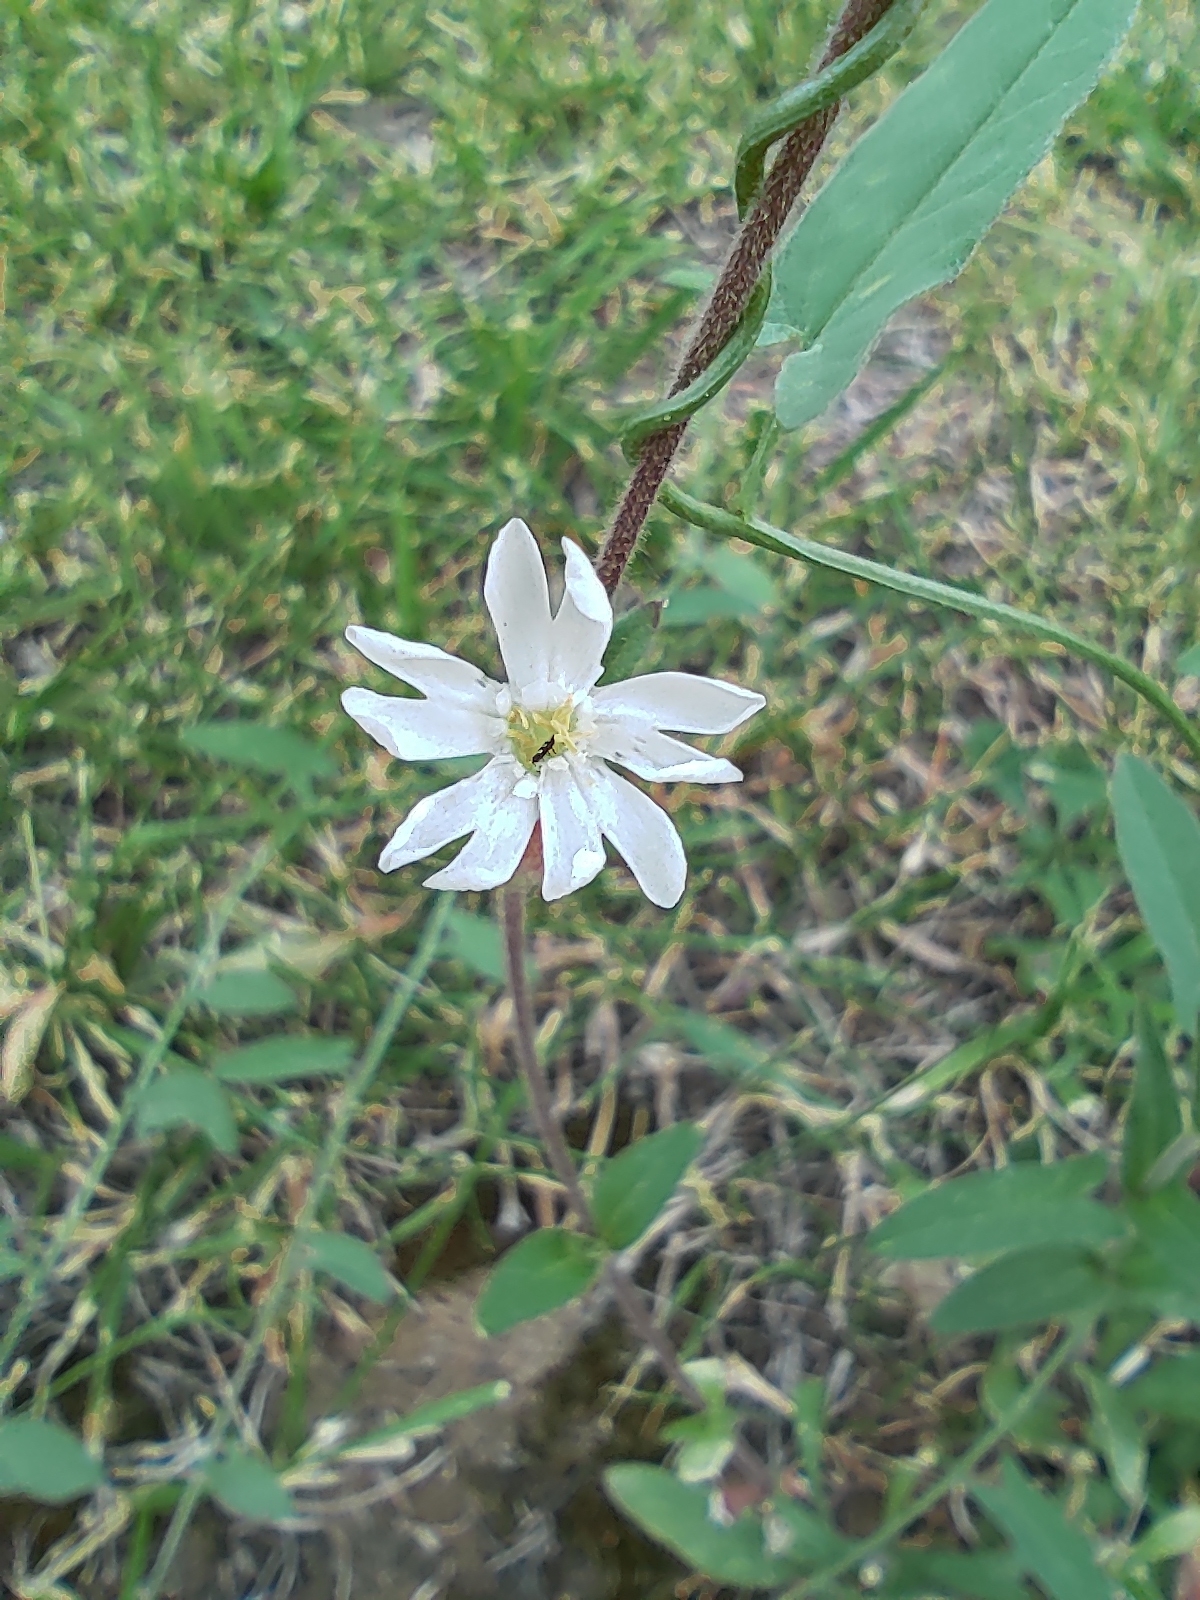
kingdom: Plantae
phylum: Tracheophyta
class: Magnoliopsida
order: Caryophyllales
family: Caryophyllaceae
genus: Silene
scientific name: Silene latifolia
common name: White campion
